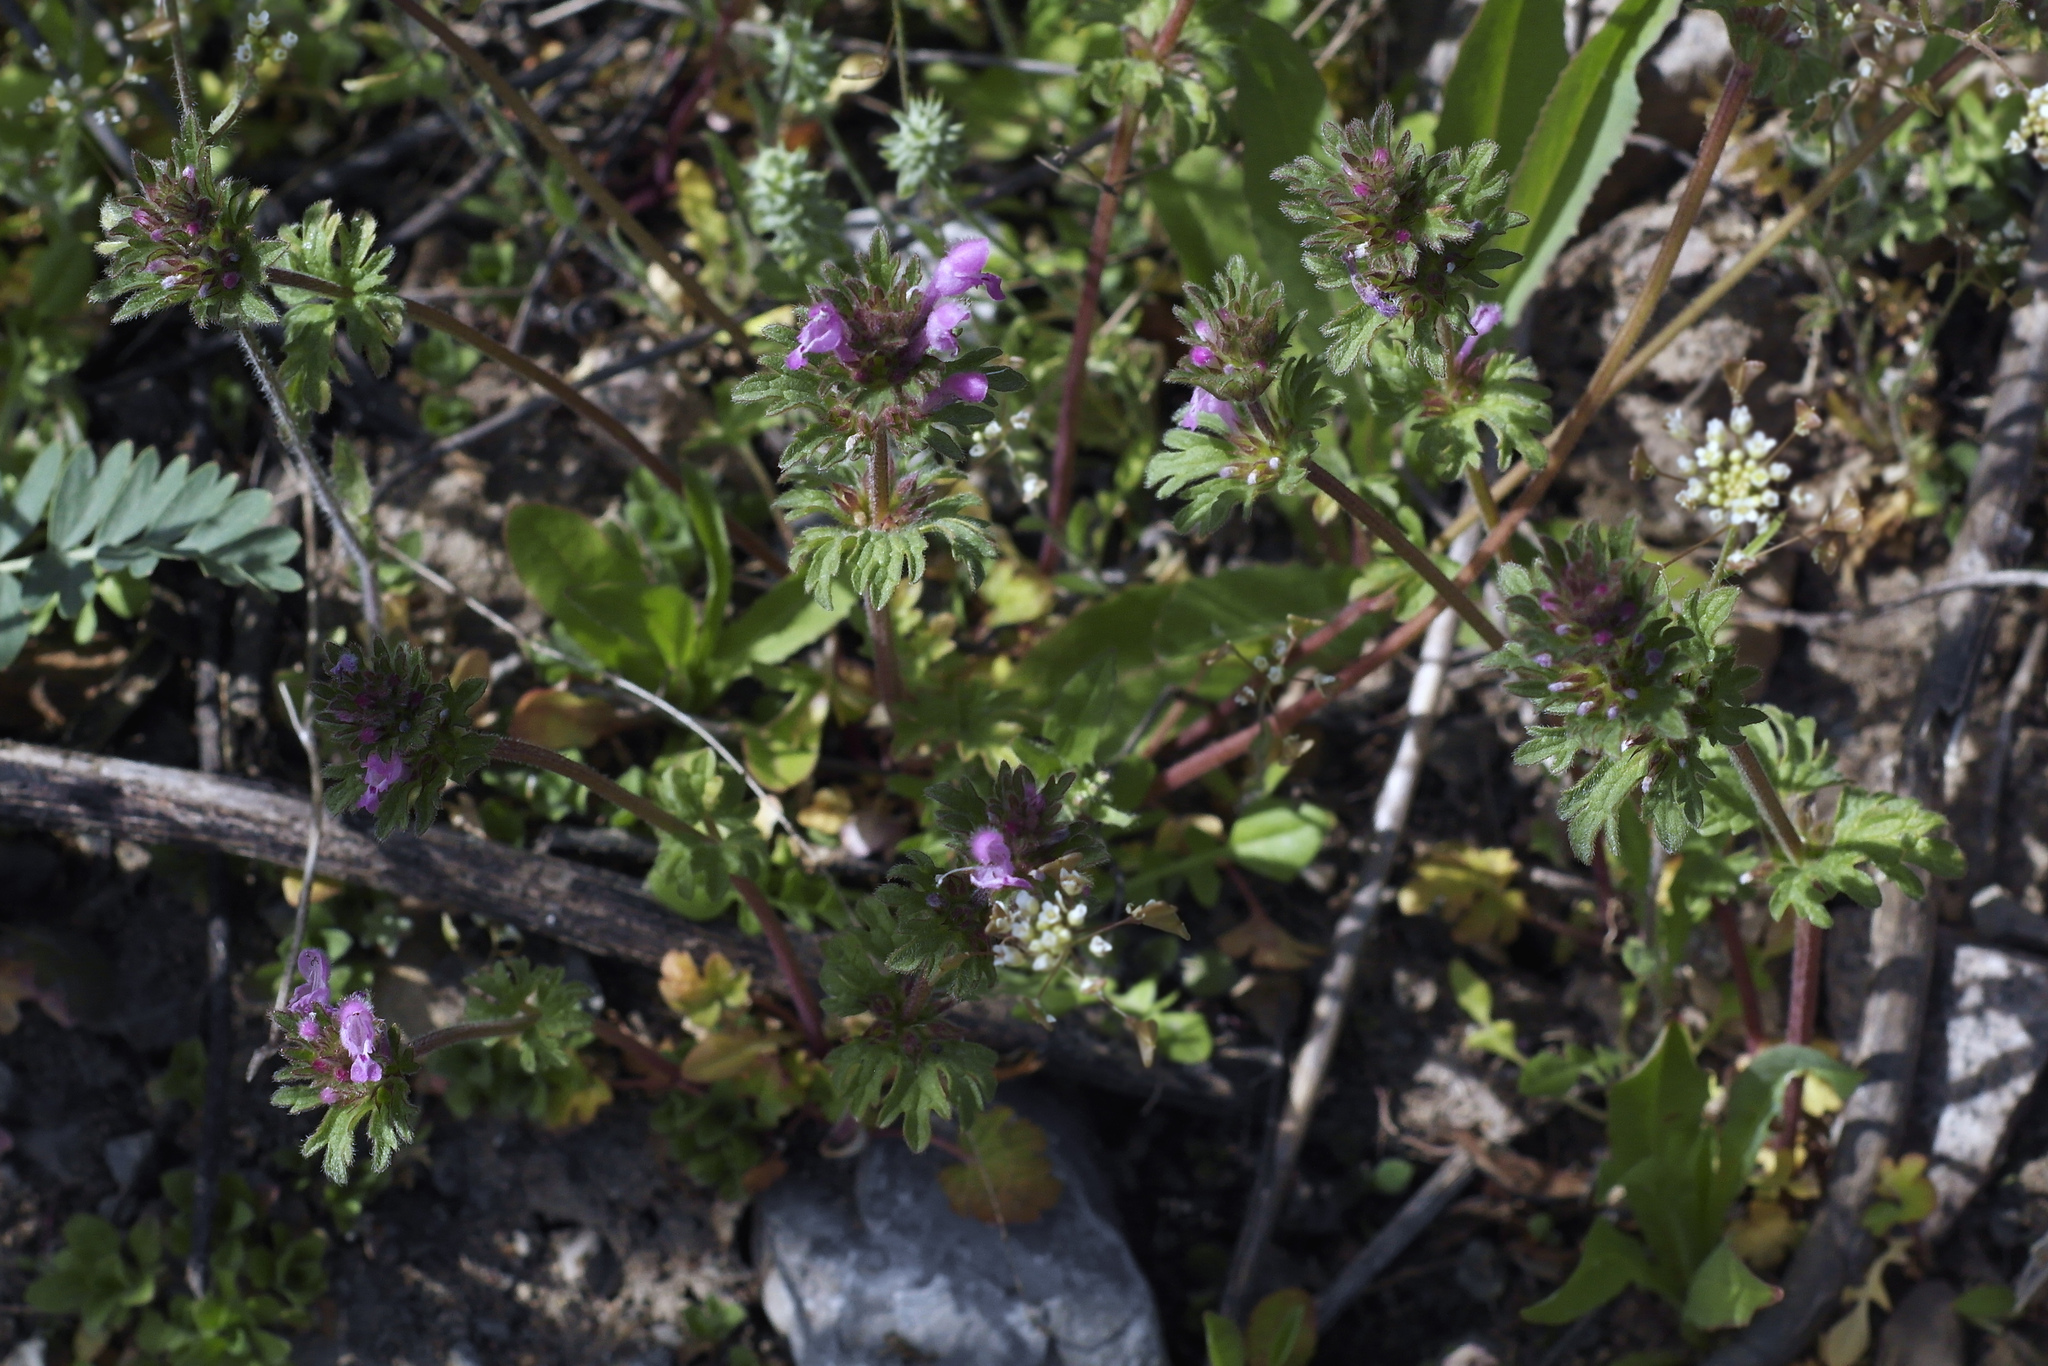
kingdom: Plantae
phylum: Tracheophyta
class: Magnoliopsida
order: Lamiales
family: Lamiaceae
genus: Lamium
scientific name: Lamium amplexicaule
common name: Henbit dead-nettle
